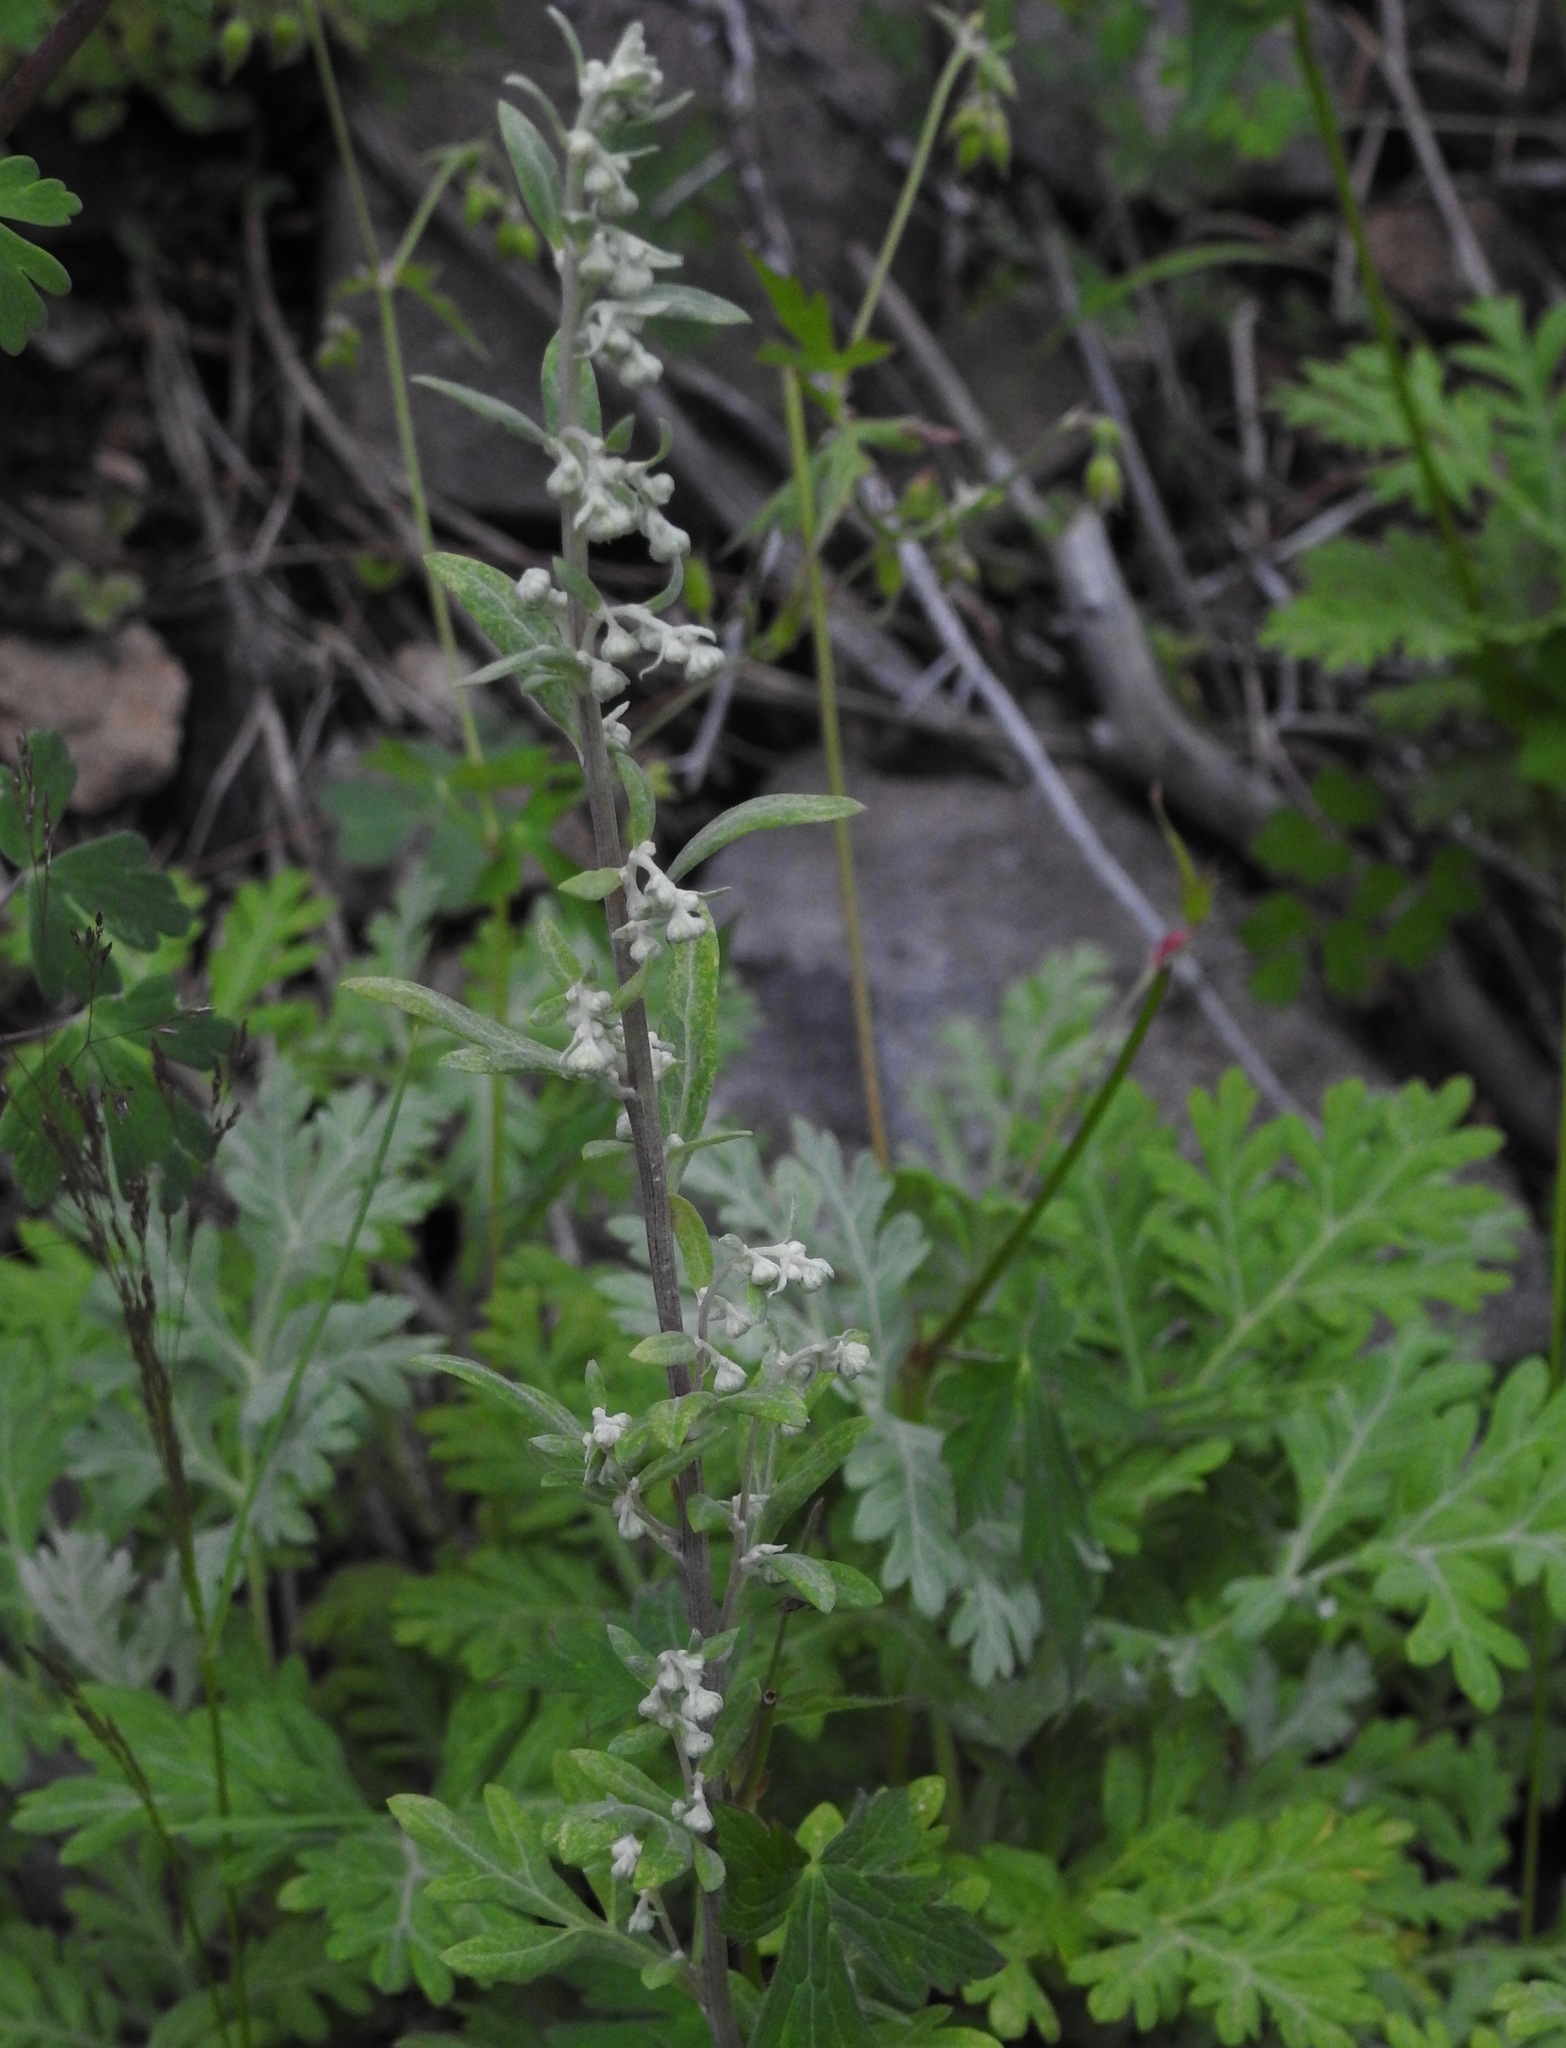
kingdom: Plantae
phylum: Tracheophyta
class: Magnoliopsida
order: Asterales
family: Asteraceae
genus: Artemisia
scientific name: Artemisia franserioides
